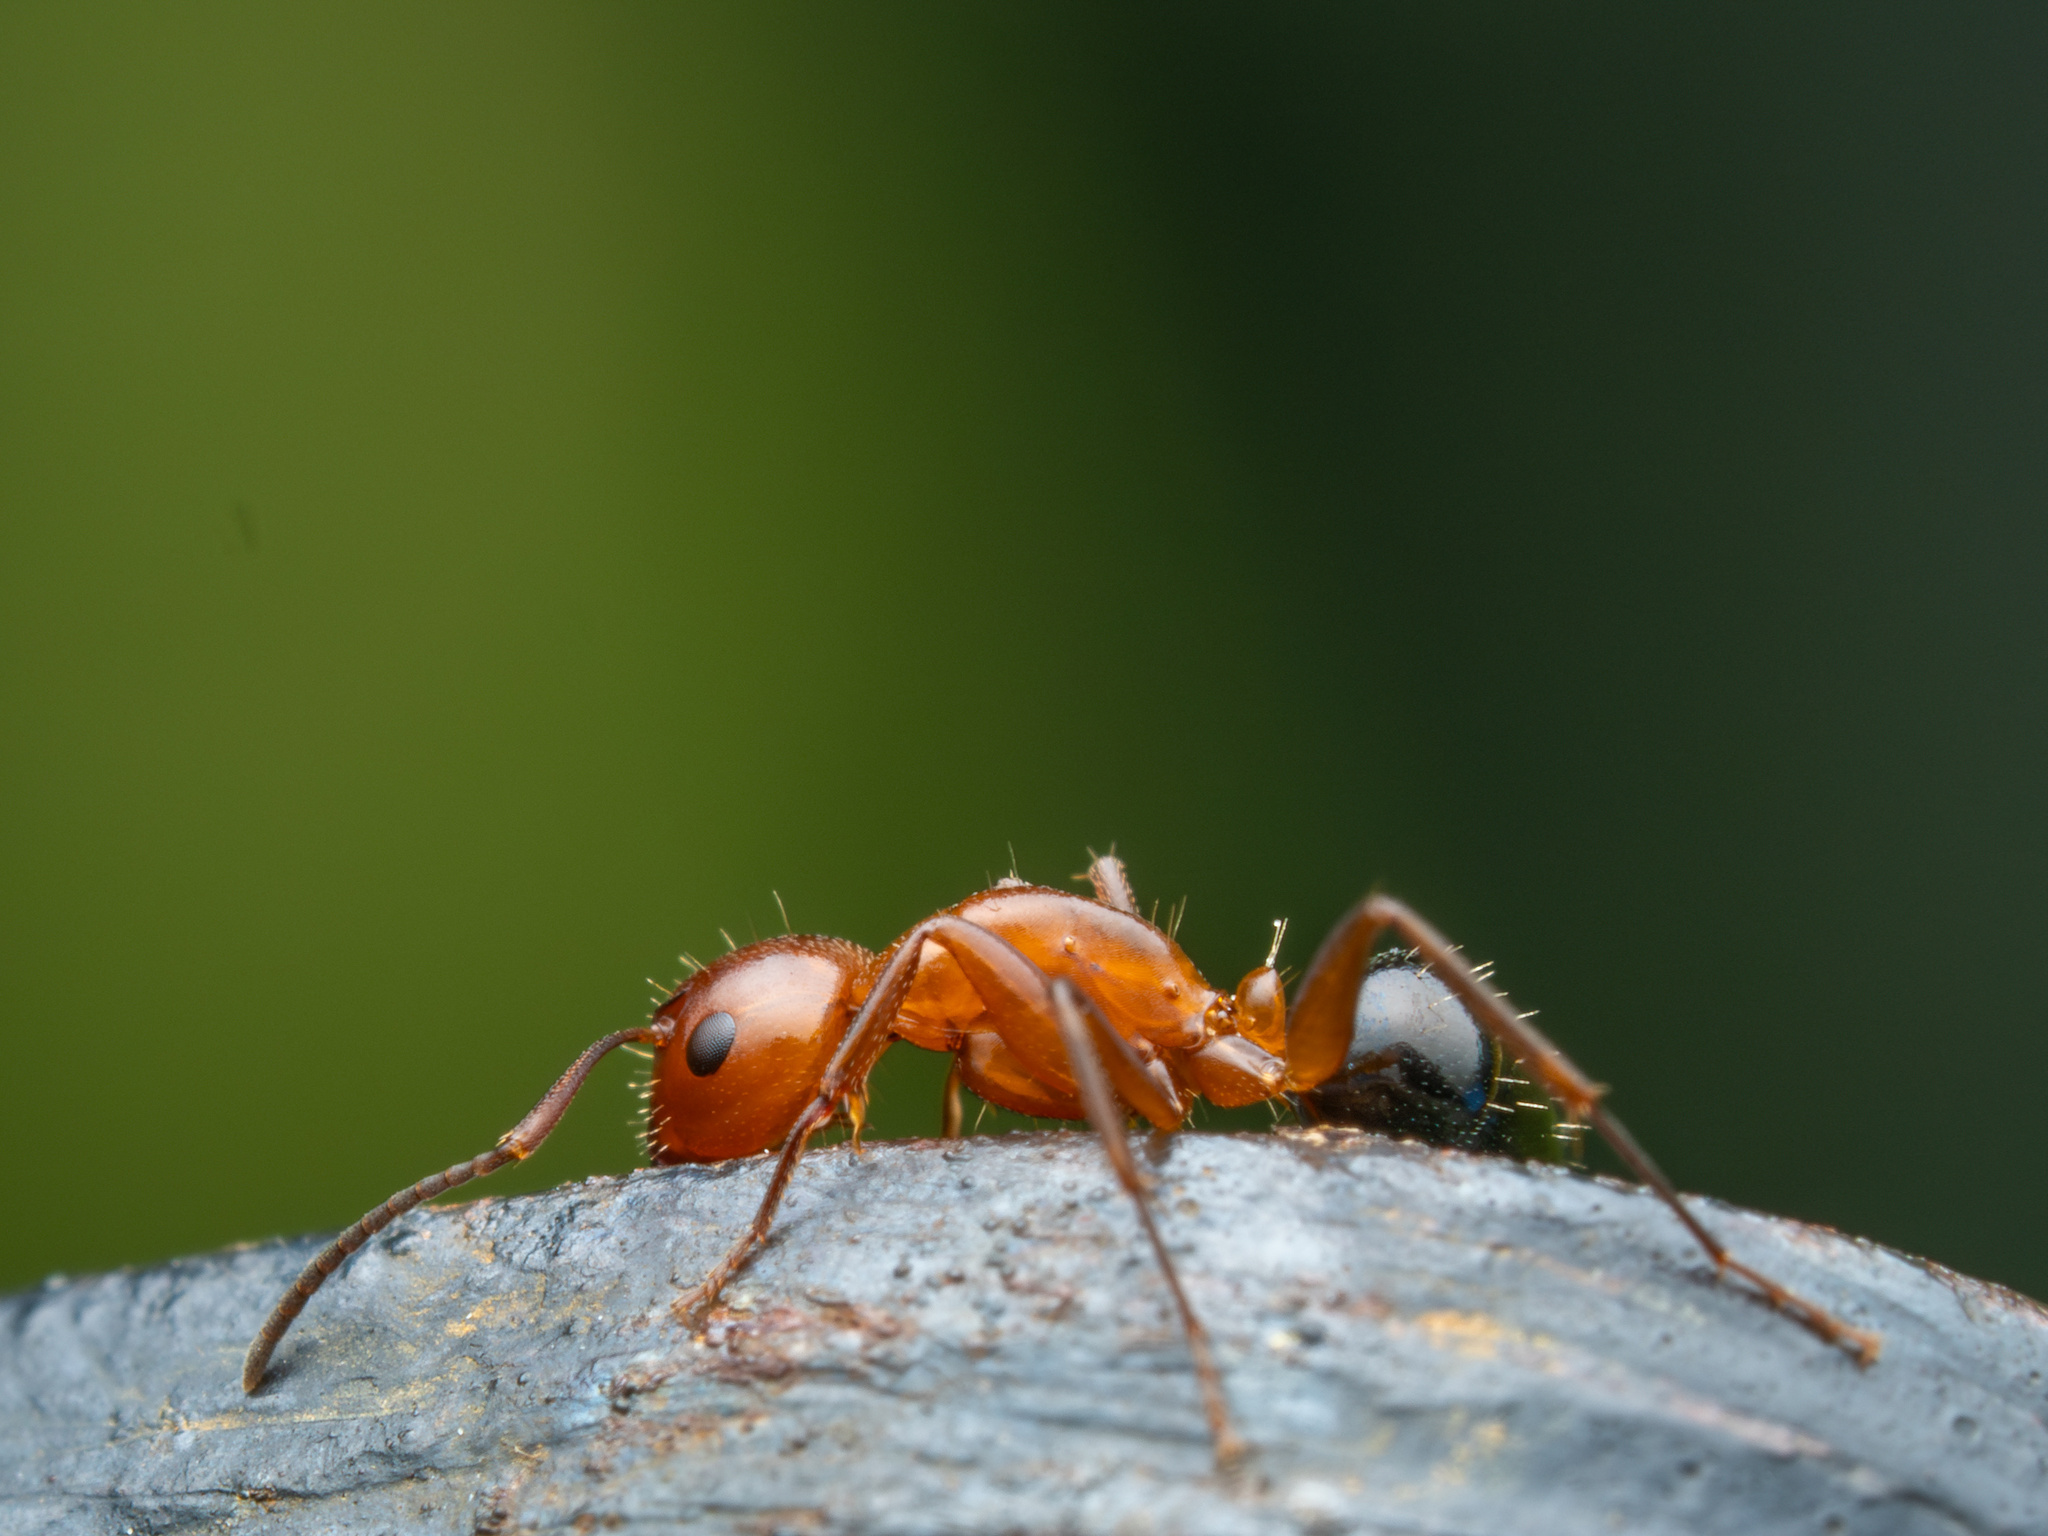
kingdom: Animalia
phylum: Arthropoda
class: Insecta
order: Hymenoptera
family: Formicidae
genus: Camponotus
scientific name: Camponotus discolor
